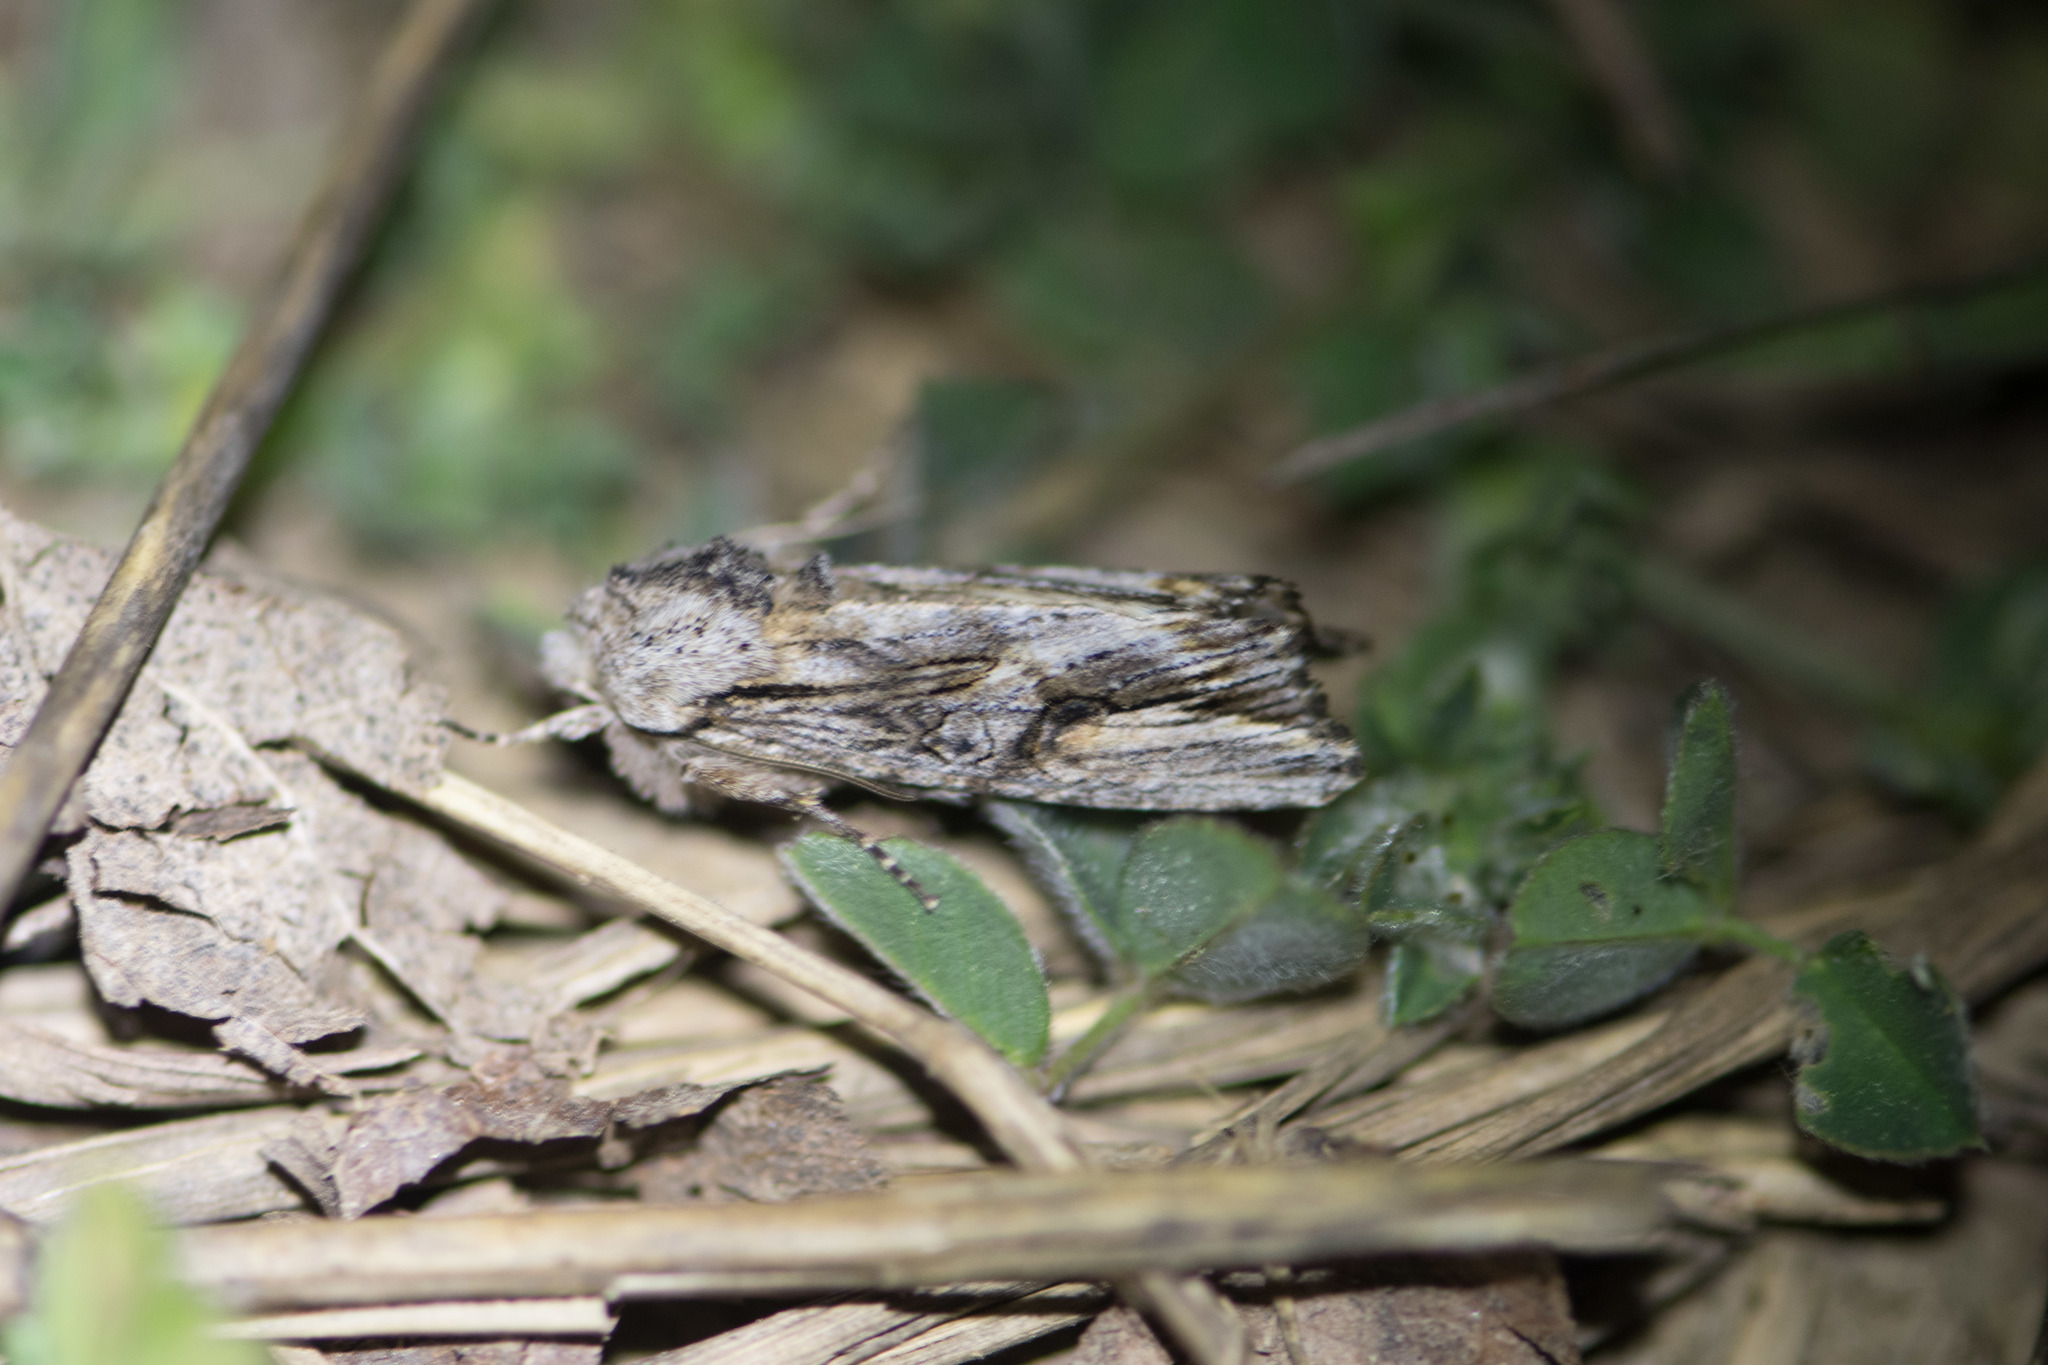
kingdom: Animalia
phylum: Arthropoda
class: Insecta
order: Lepidoptera
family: Noctuidae
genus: Egira
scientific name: Egira conspicillaris
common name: Silver cloud
